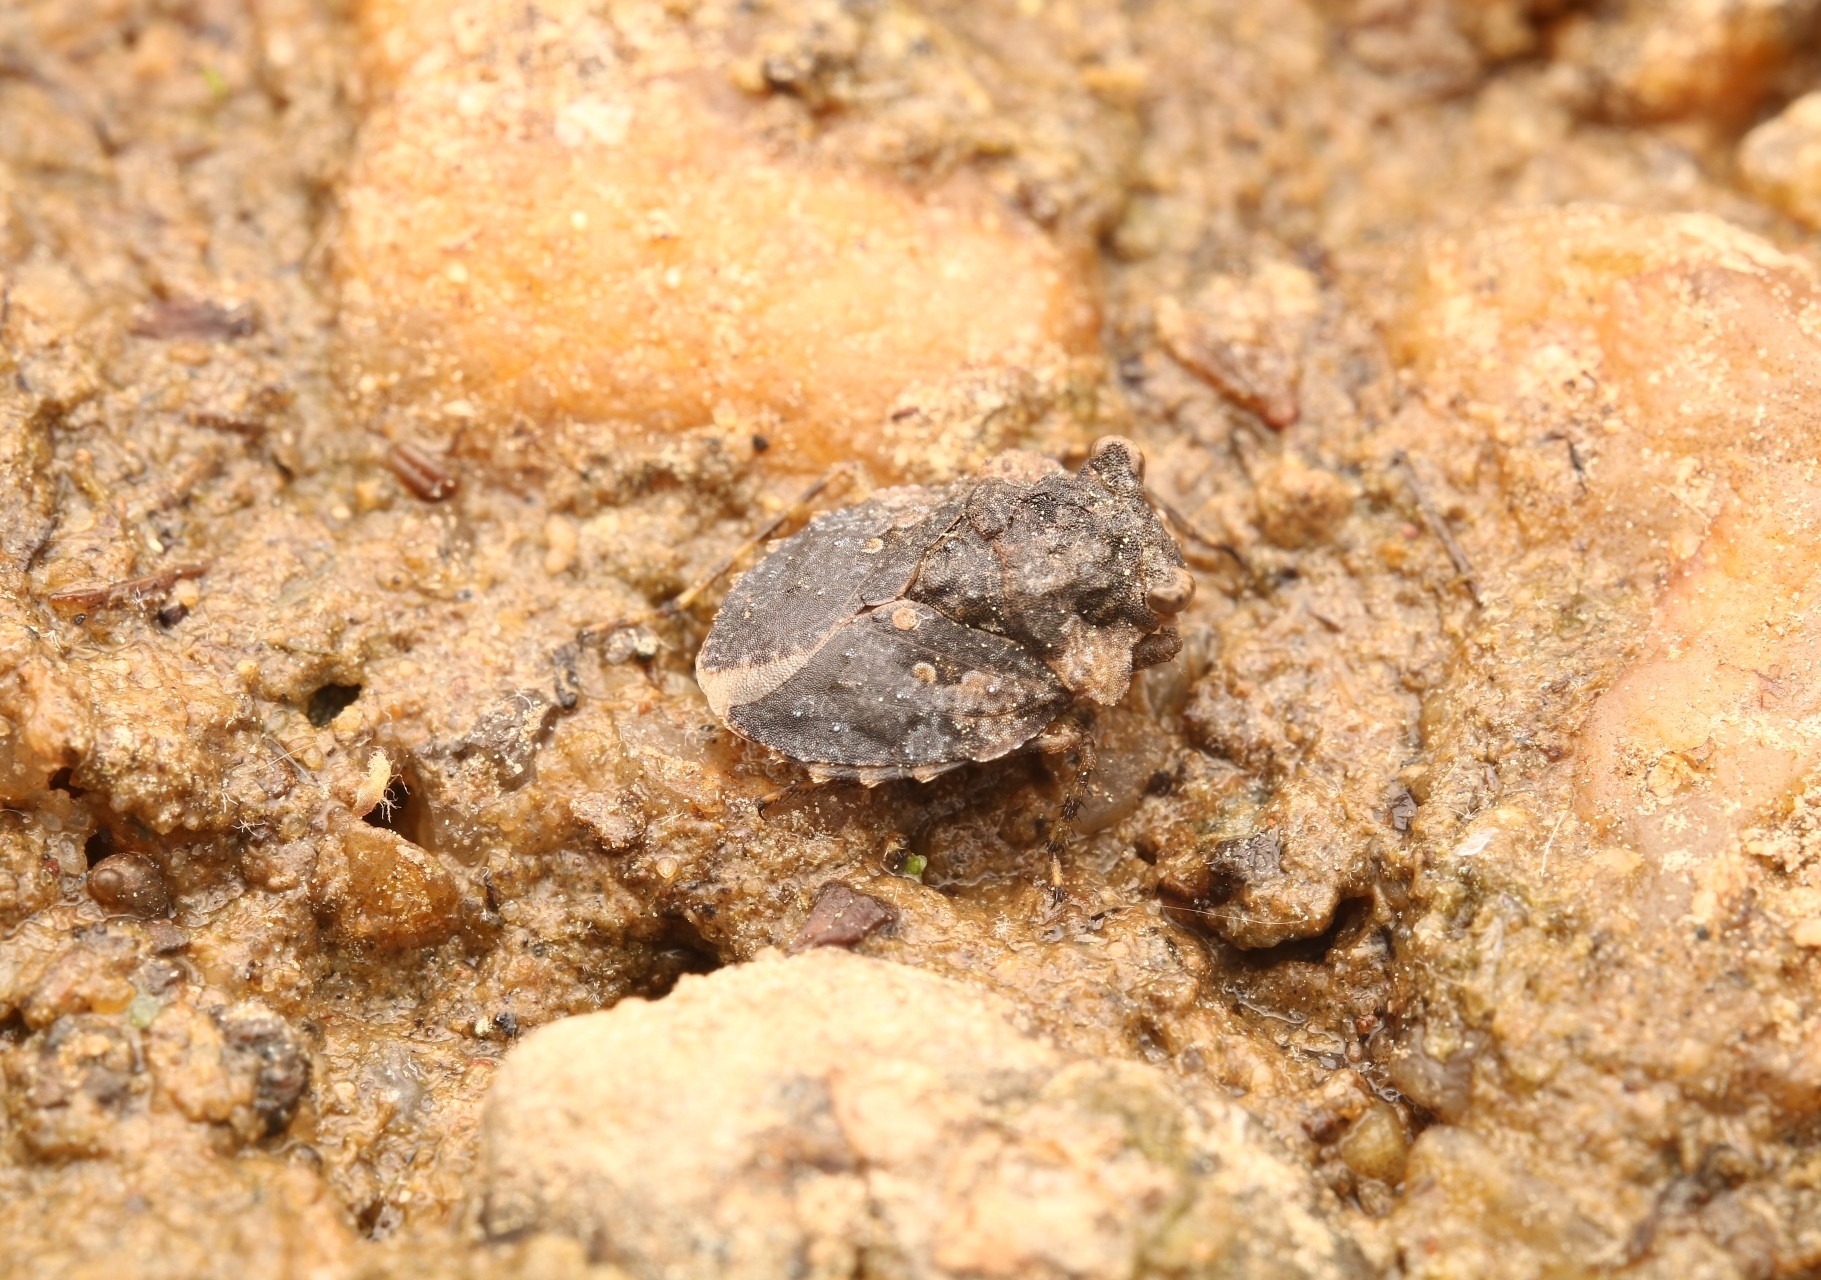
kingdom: Animalia
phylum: Arthropoda
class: Insecta
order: Hemiptera
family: Gelastocoridae
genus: Gelastocoris
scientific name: Gelastocoris oculatus
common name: Toad bug
